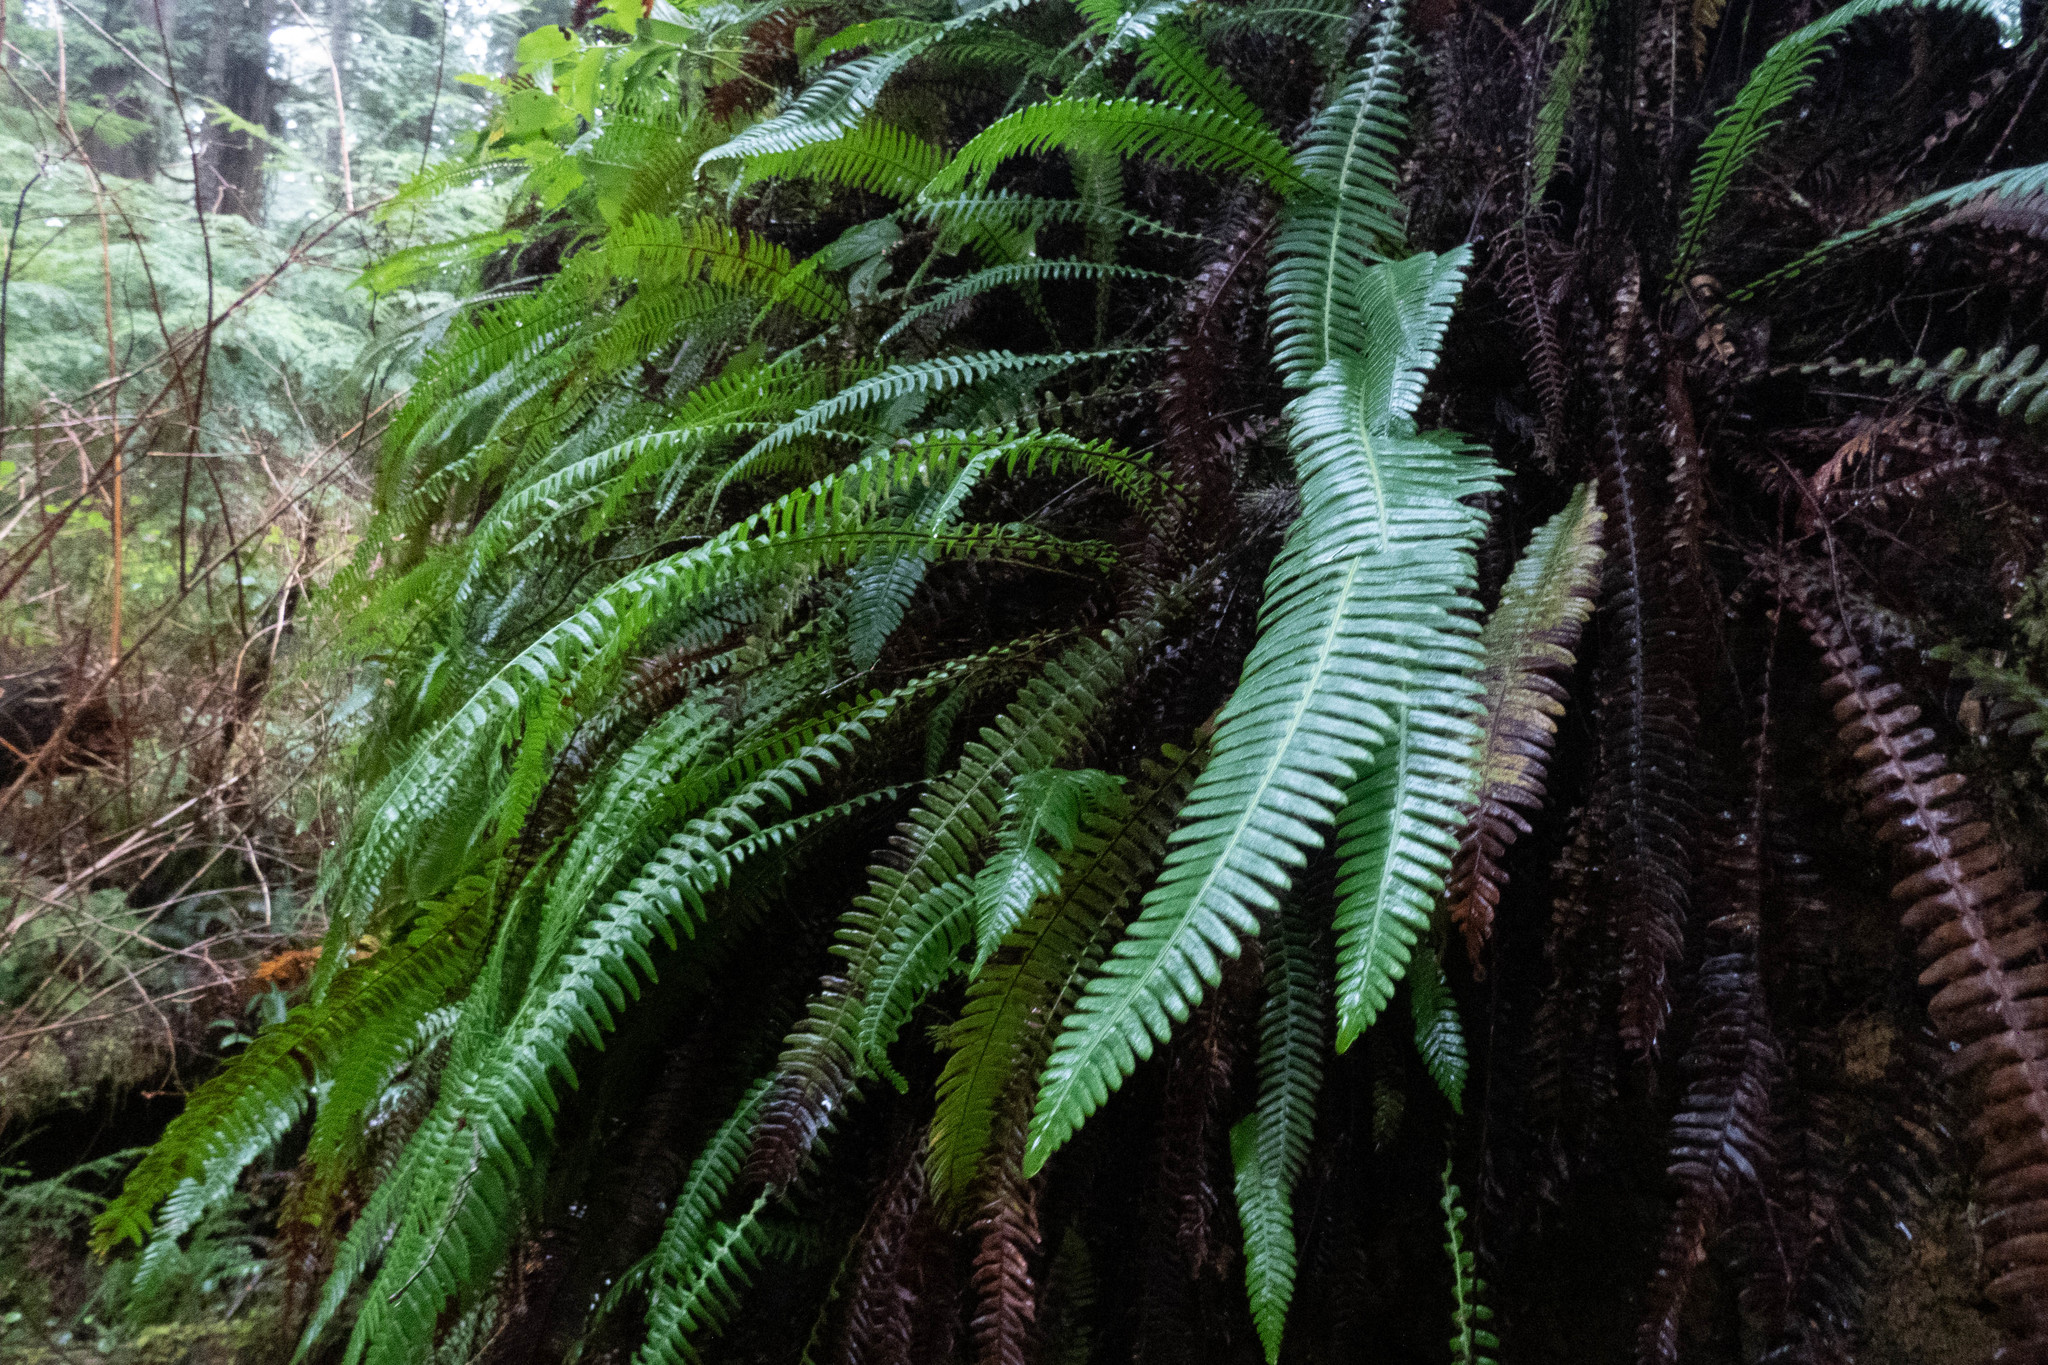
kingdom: Plantae
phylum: Tracheophyta
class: Polypodiopsida
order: Polypodiales
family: Blechnaceae
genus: Struthiopteris
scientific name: Struthiopteris spicant
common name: Deer fern
